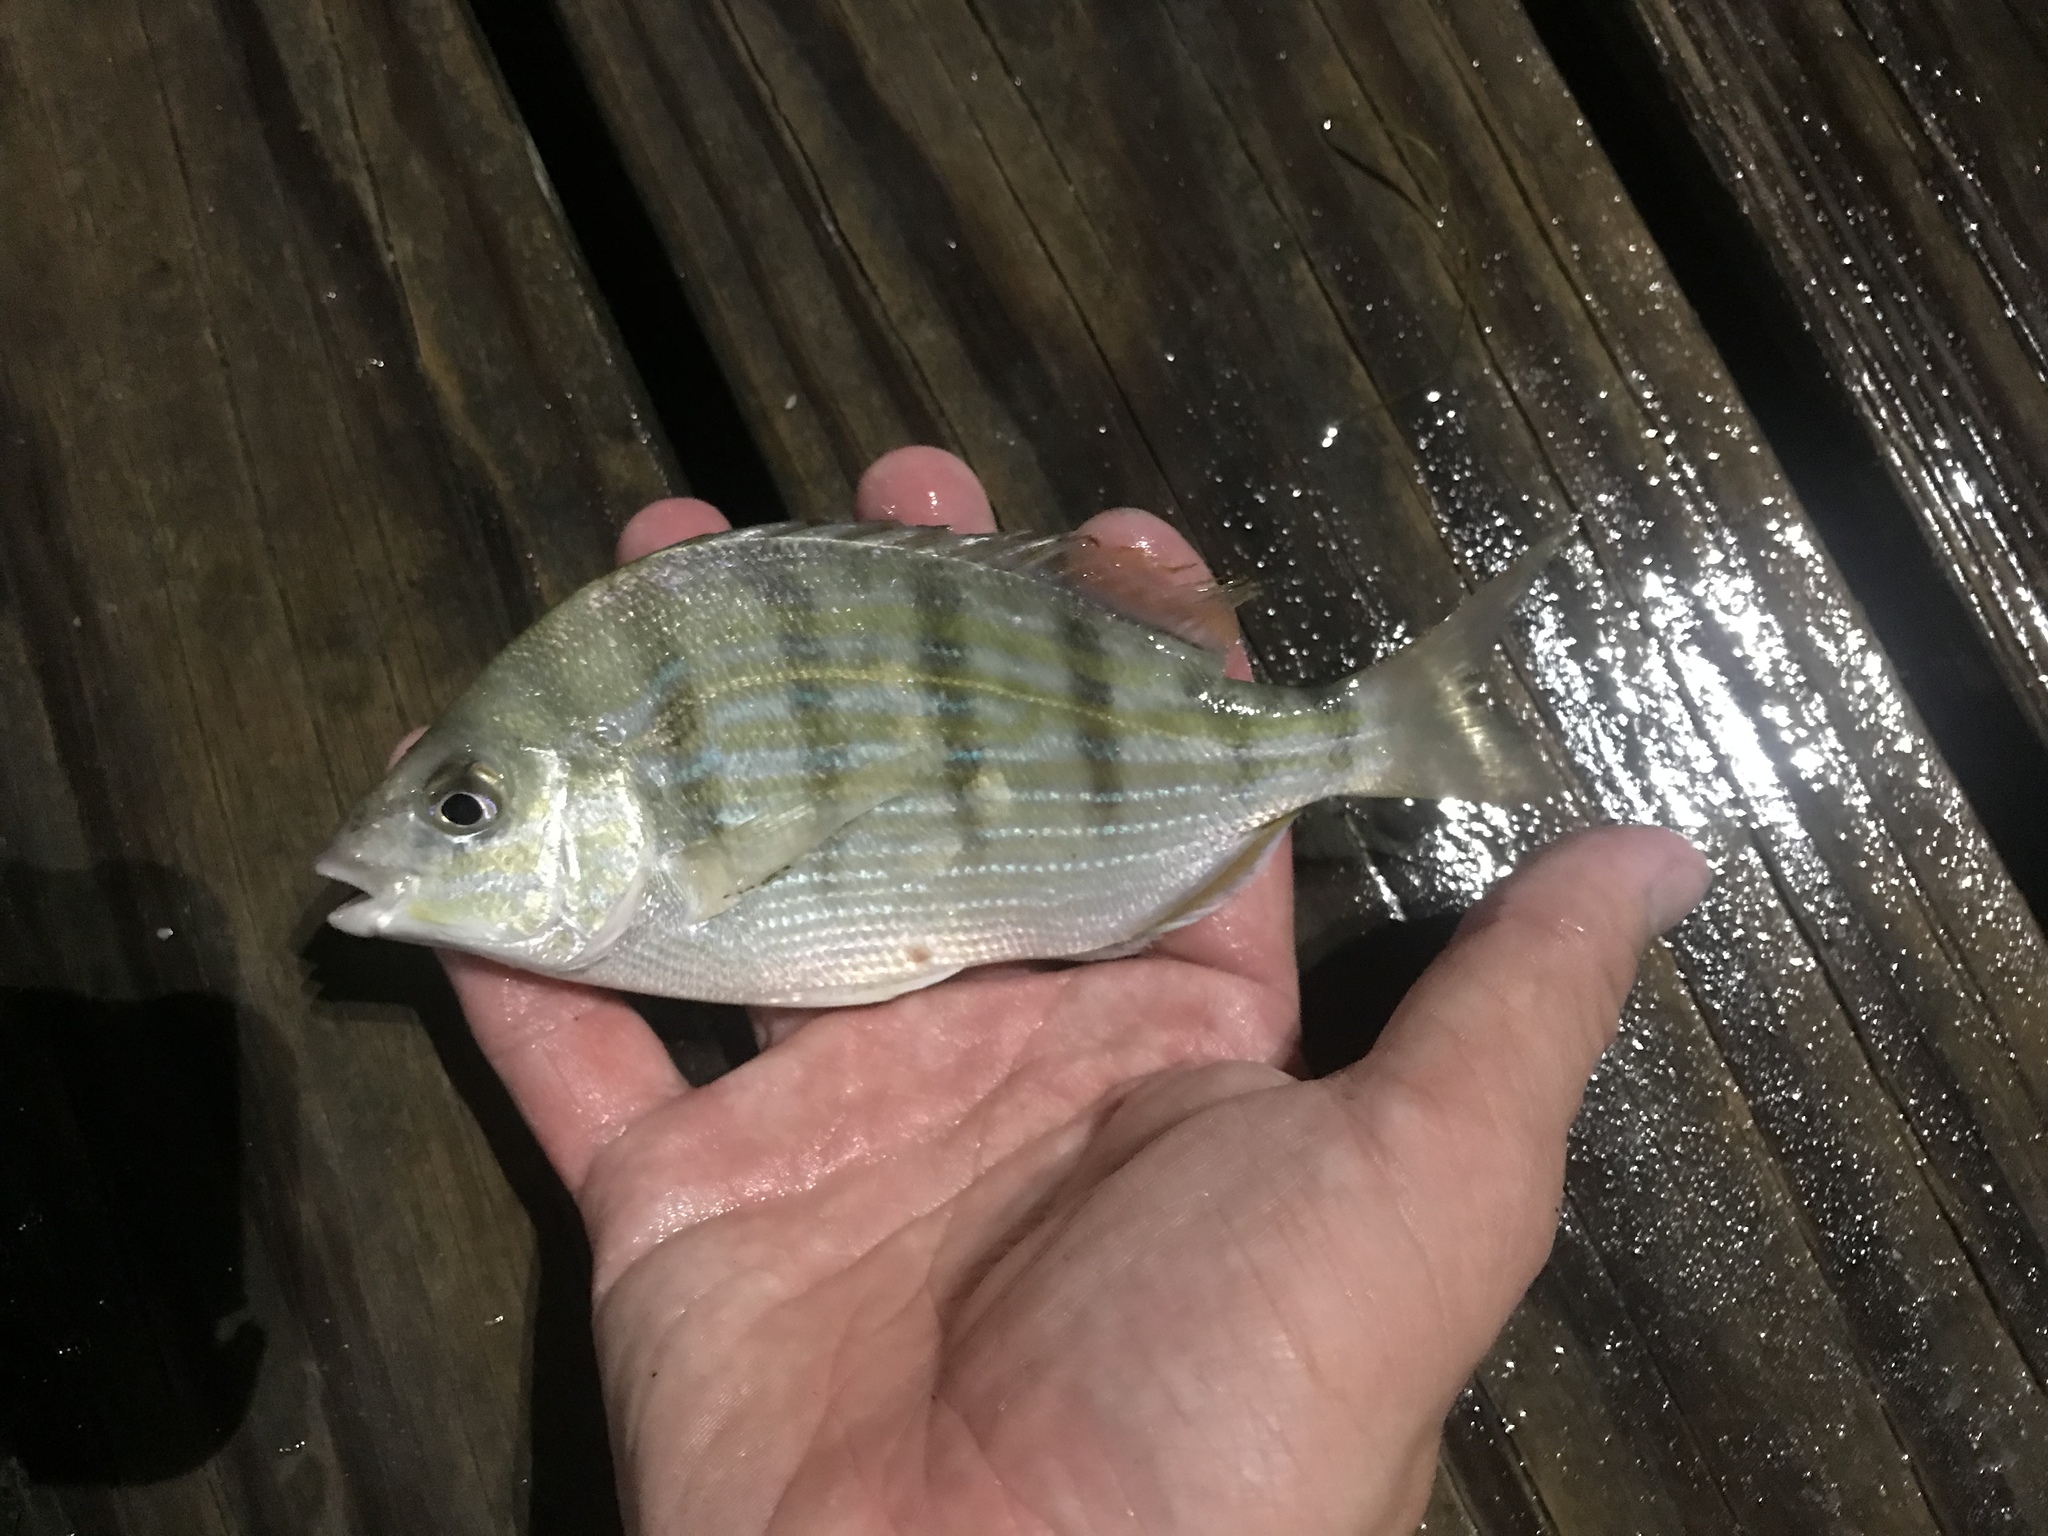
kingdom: Animalia
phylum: Chordata
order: Perciformes
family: Sparidae
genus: Lagodon
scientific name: Lagodon rhomboides
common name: Pinfish
